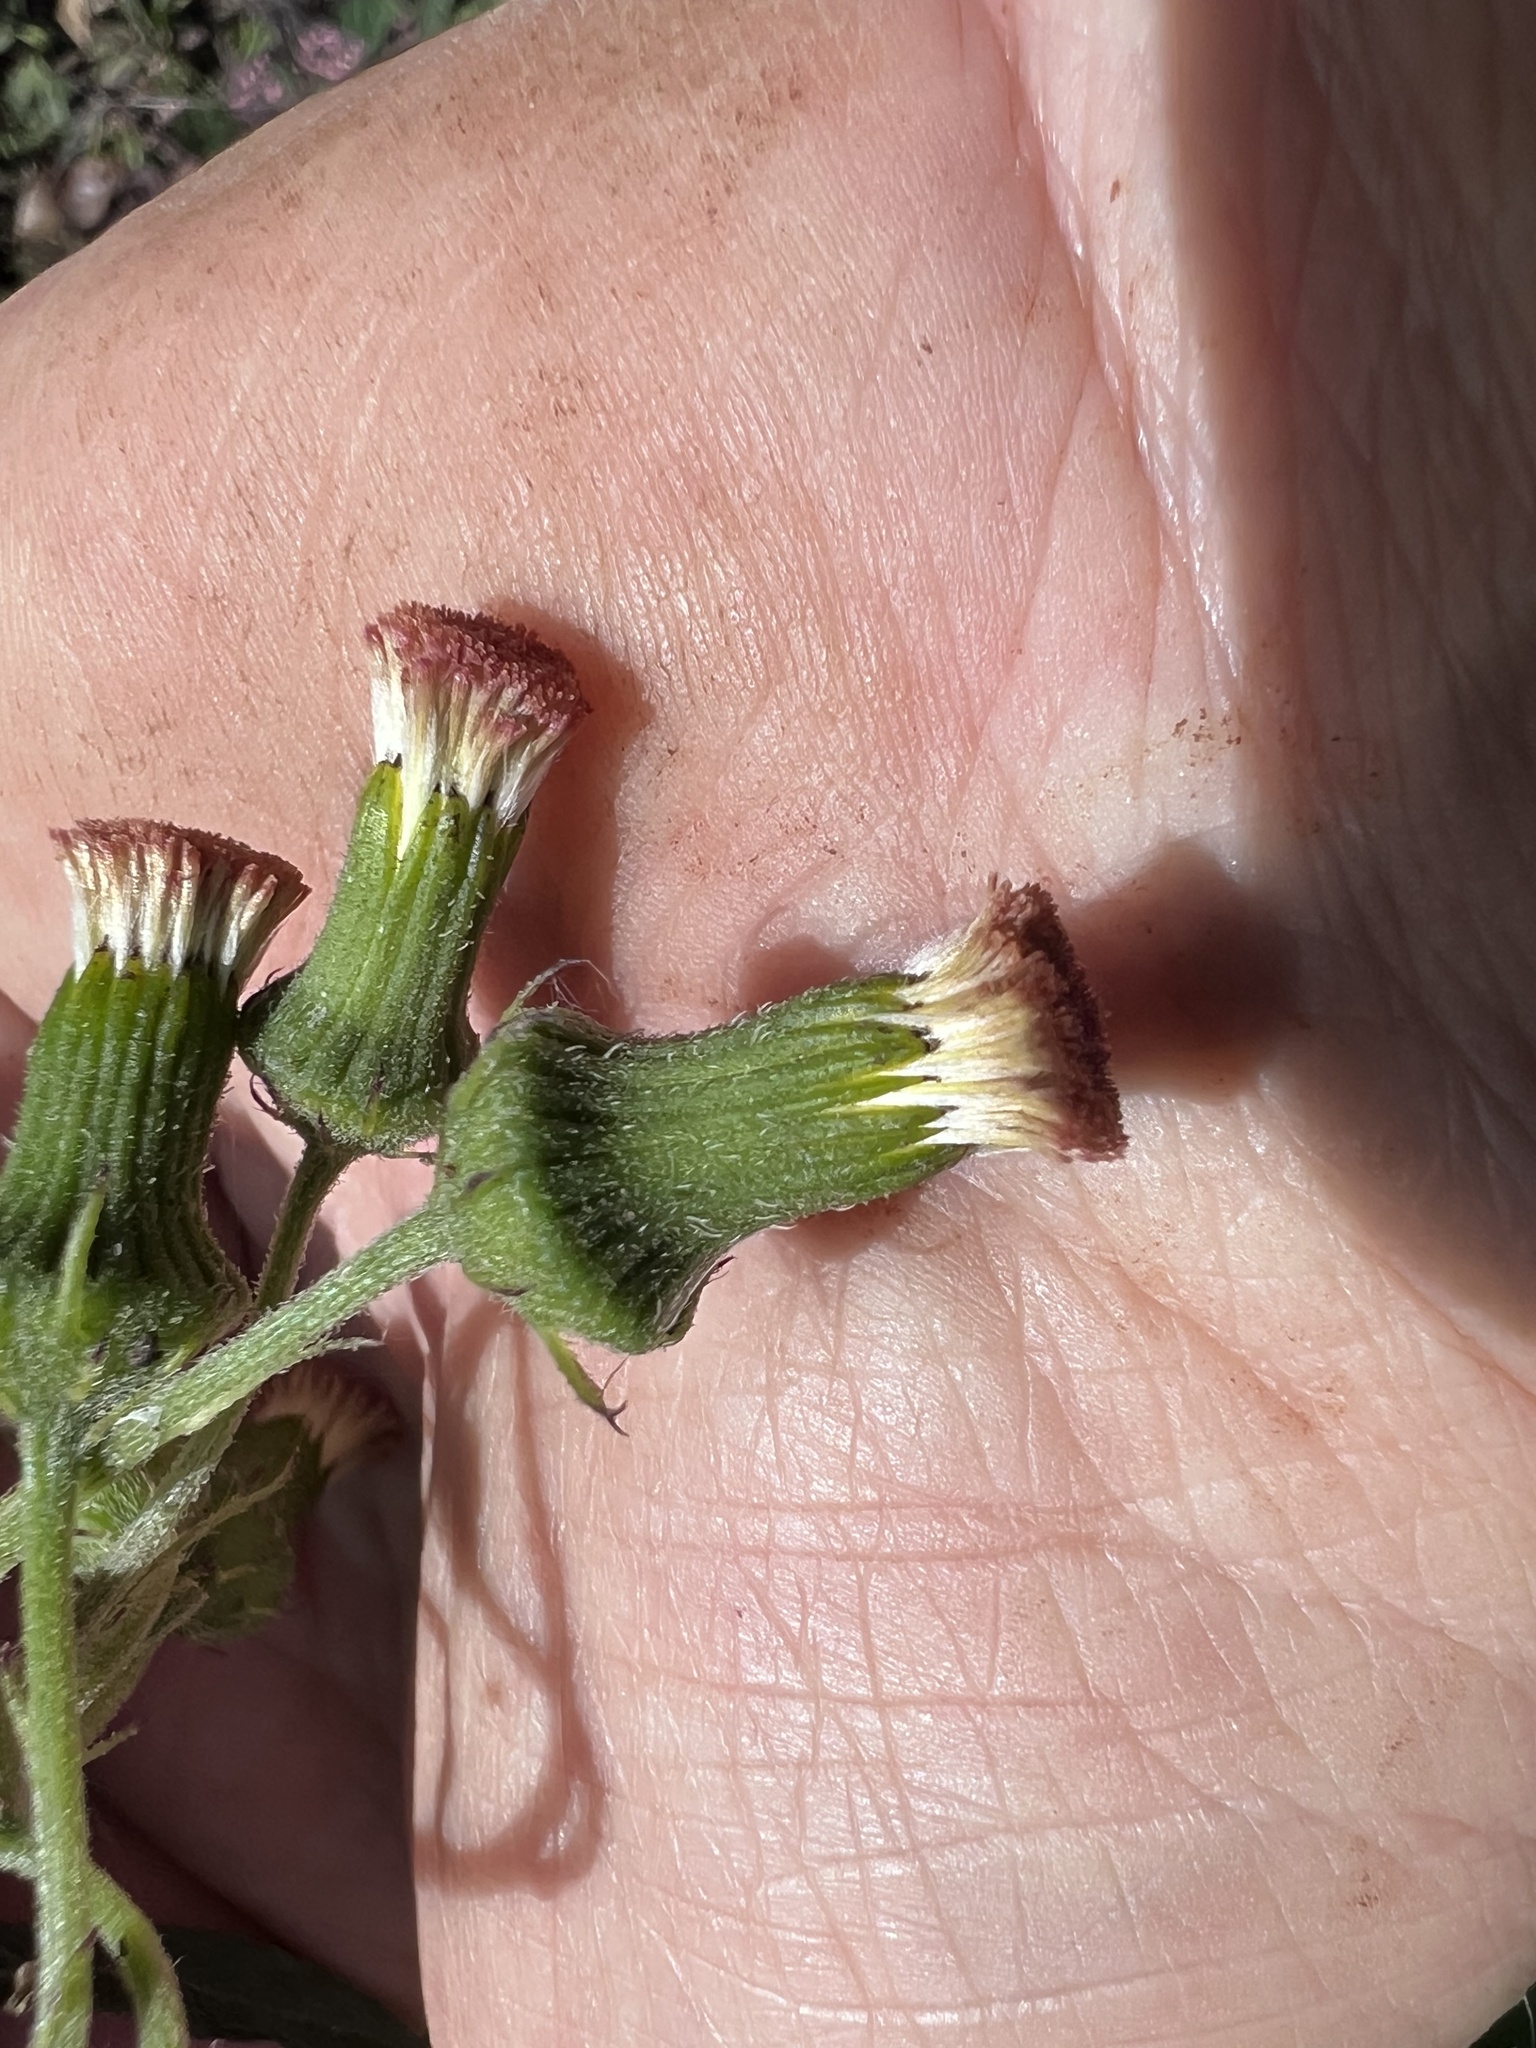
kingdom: Plantae
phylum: Tracheophyta
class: Magnoliopsida
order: Asterales
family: Asteraceae
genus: Crassocephalum
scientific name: Crassocephalum crepidioides
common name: Redflower ragleaf
